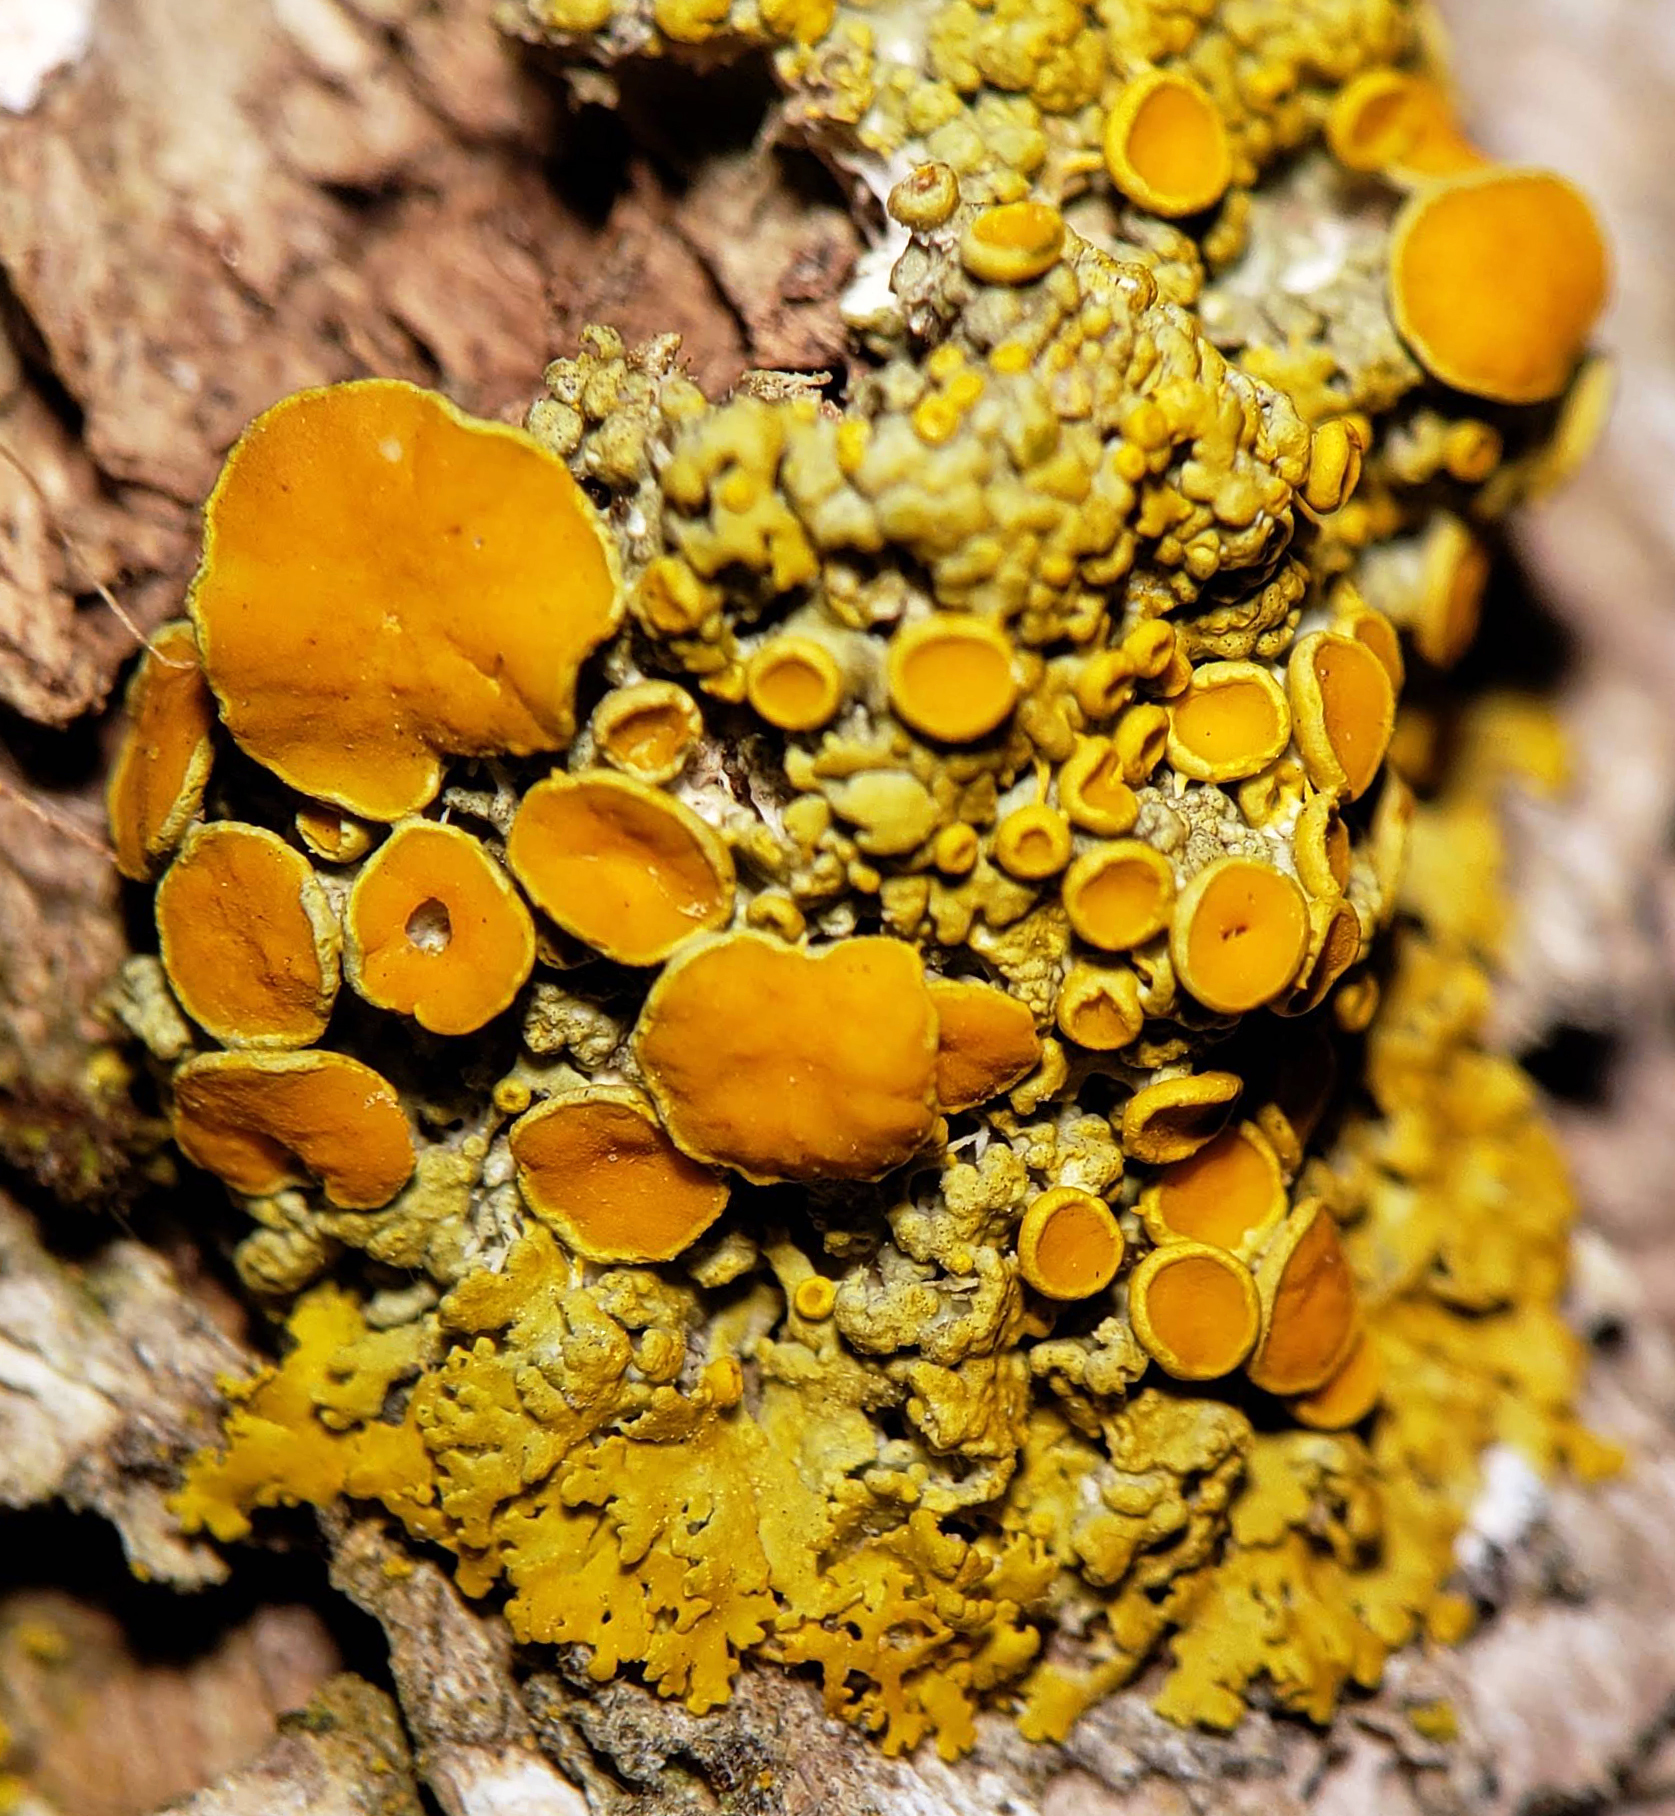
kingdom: Fungi
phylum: Ascomycota
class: Lecanoromycetes
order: Teloschistales
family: Teloschistaceae
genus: Gallowayella
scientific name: Gallowayella hasseana
